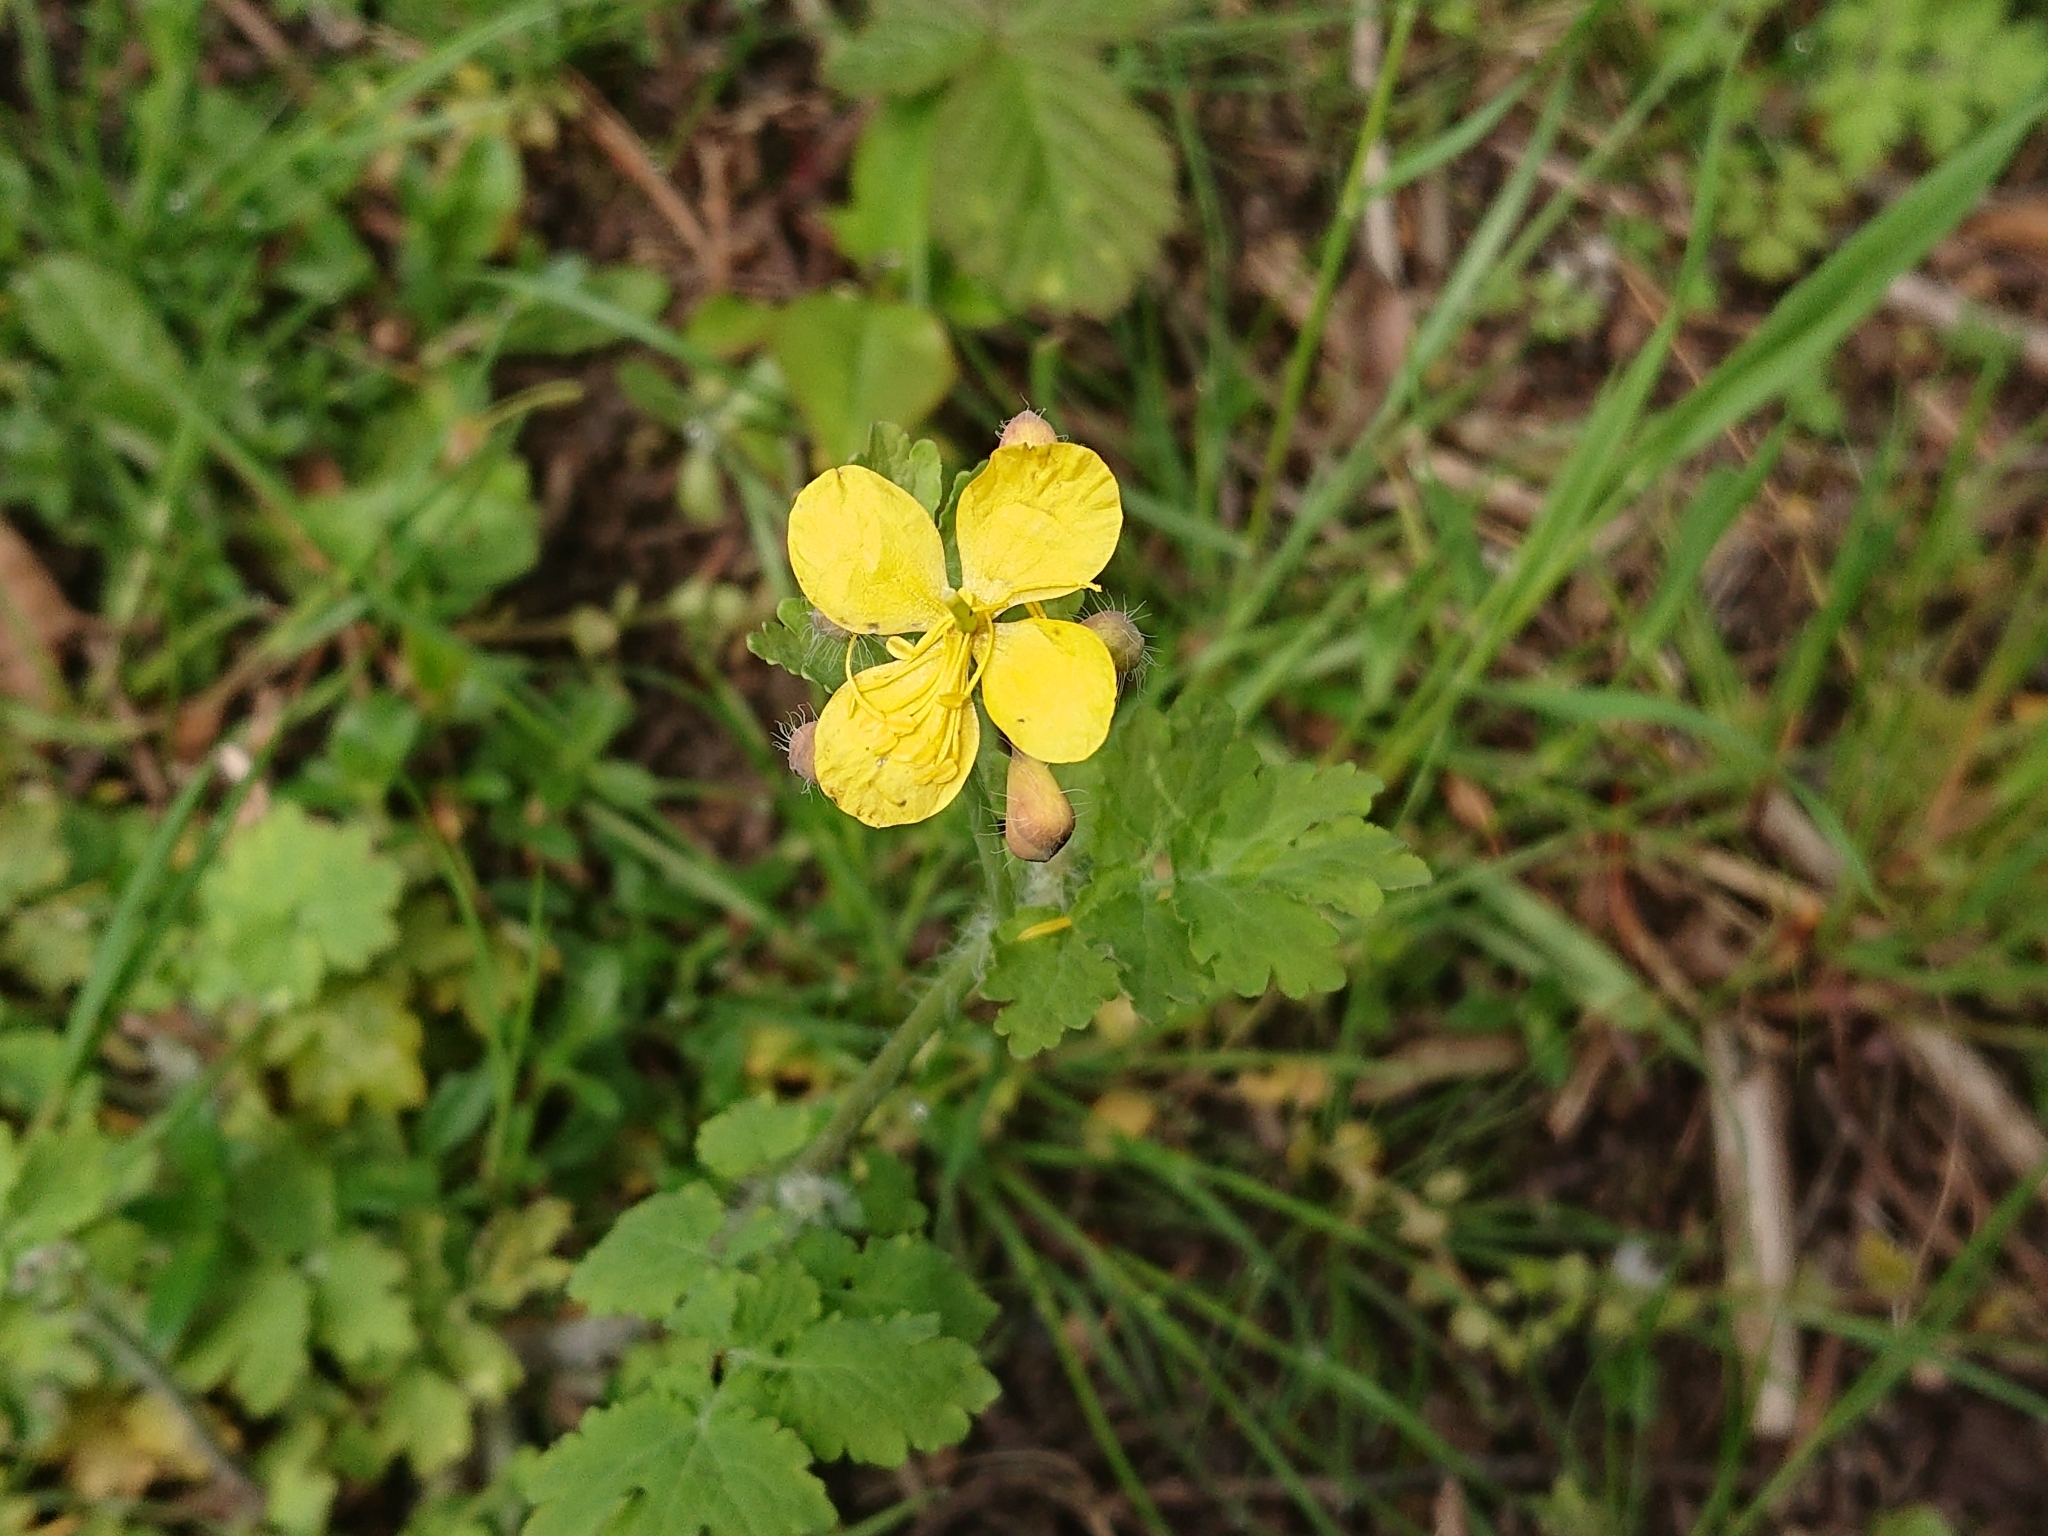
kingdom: Plantae
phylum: Tracheophyta
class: Magnoliopsida
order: Ranunculales
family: Papaveraceae
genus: Chelidonium
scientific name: Chelidonium majus
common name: Greater celandine
